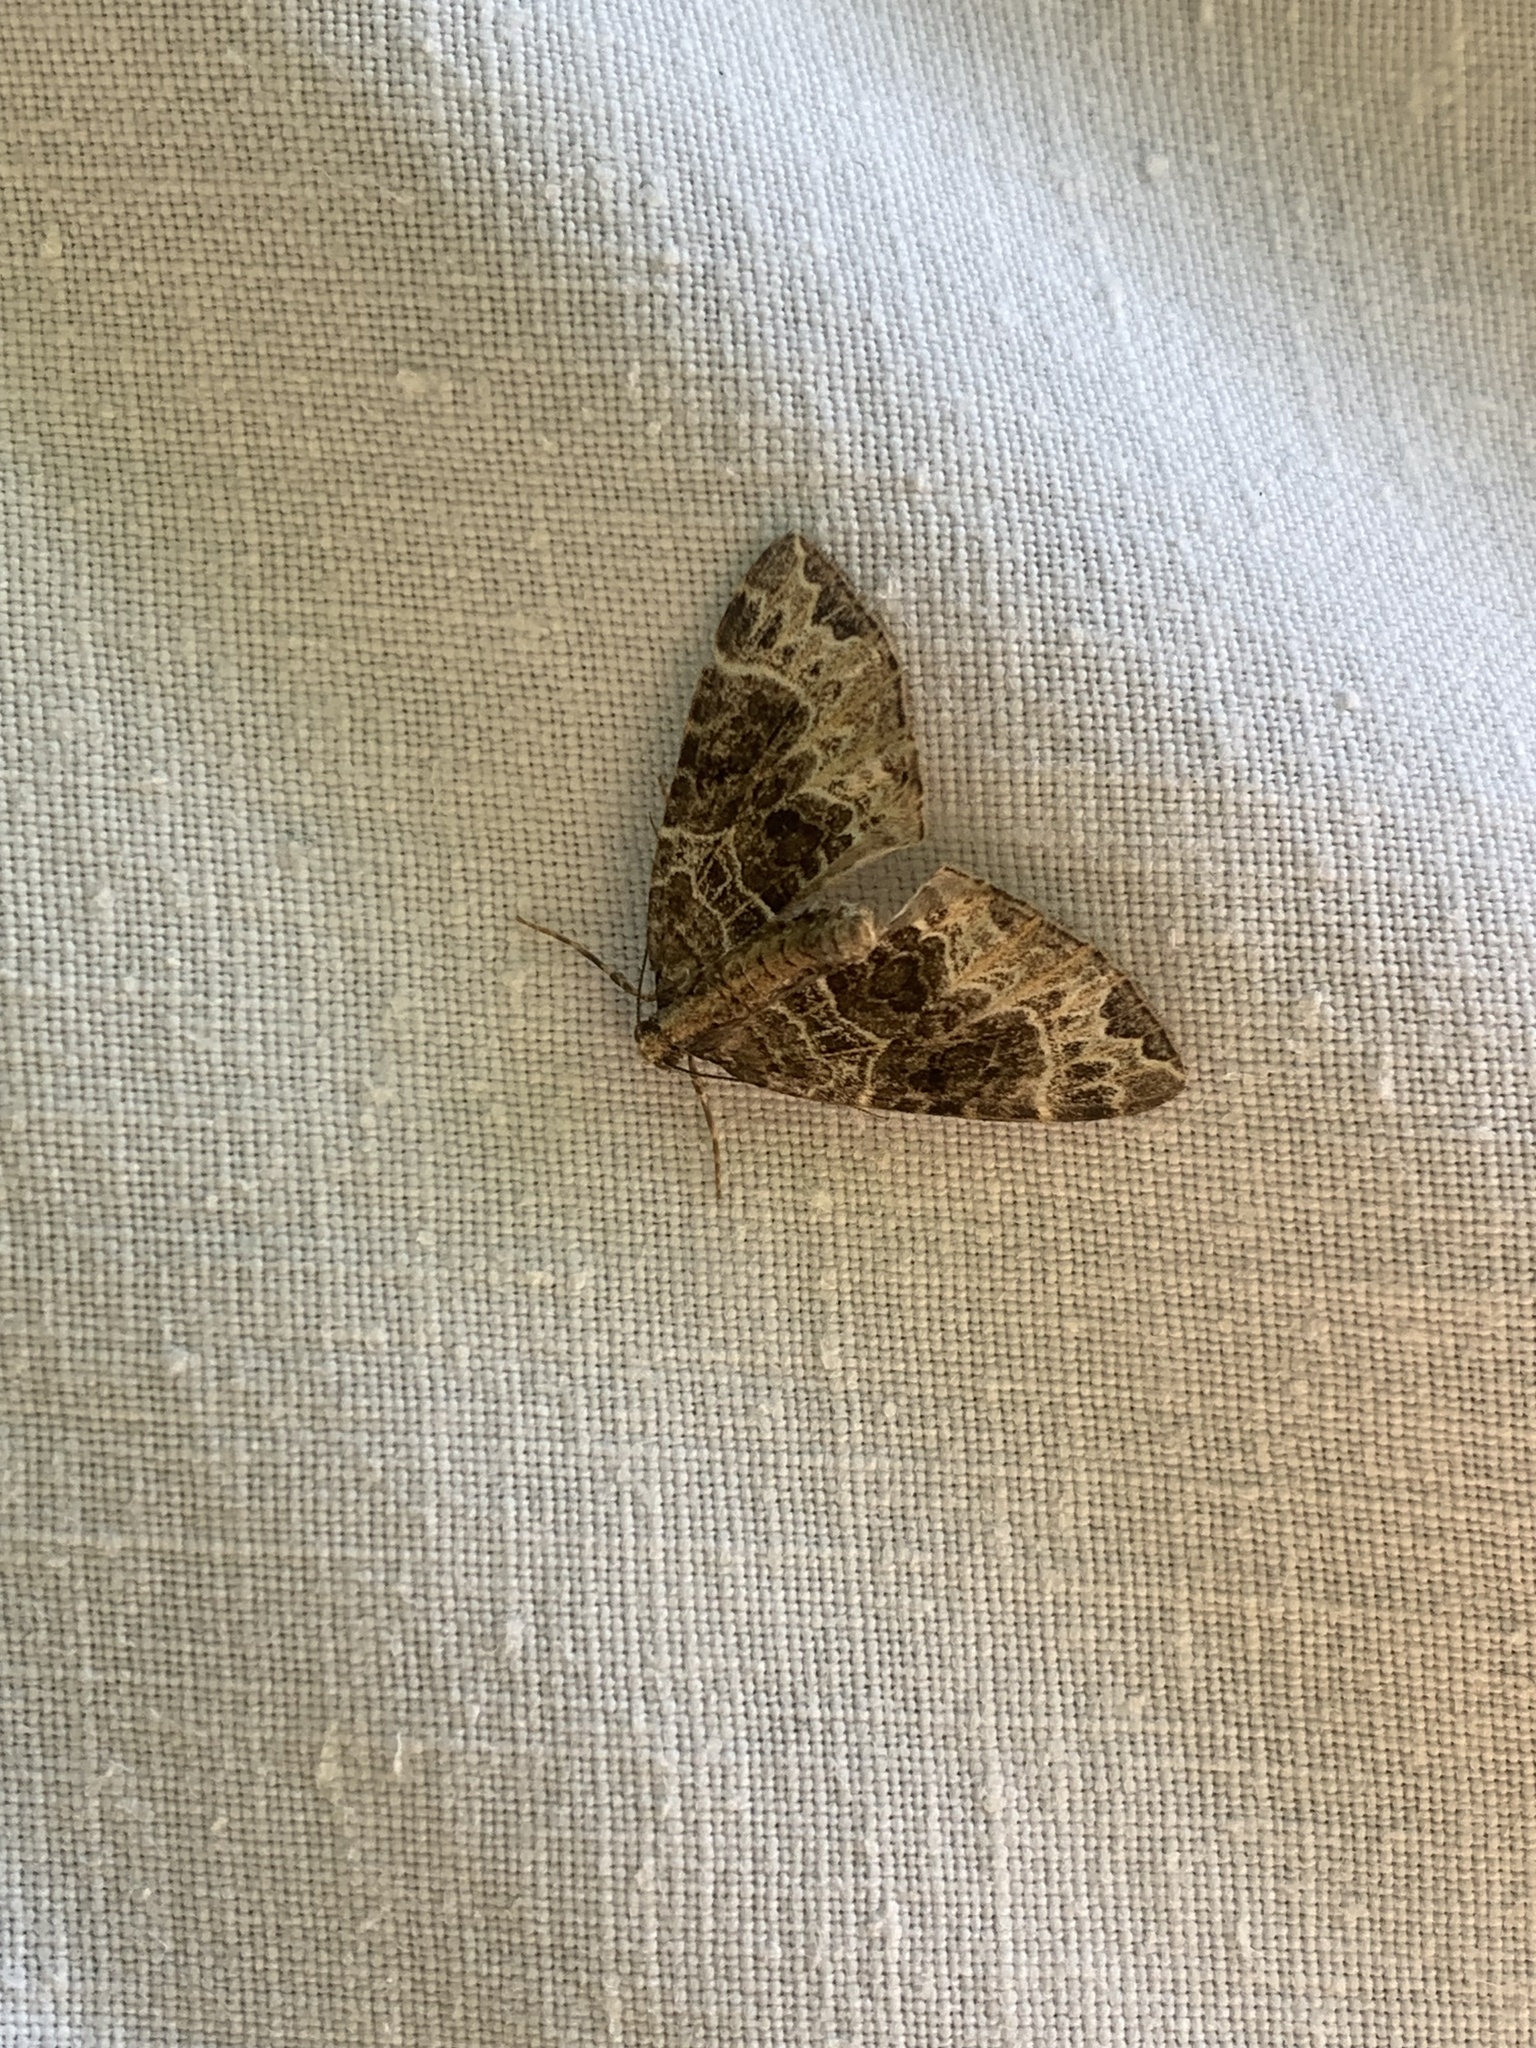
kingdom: Animalia
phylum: Arthropoda
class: Insecta
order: Lepidoptera
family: Geometridae
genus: Ecliptopera
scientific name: Ecliptopera silaceata
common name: Small phoenix
